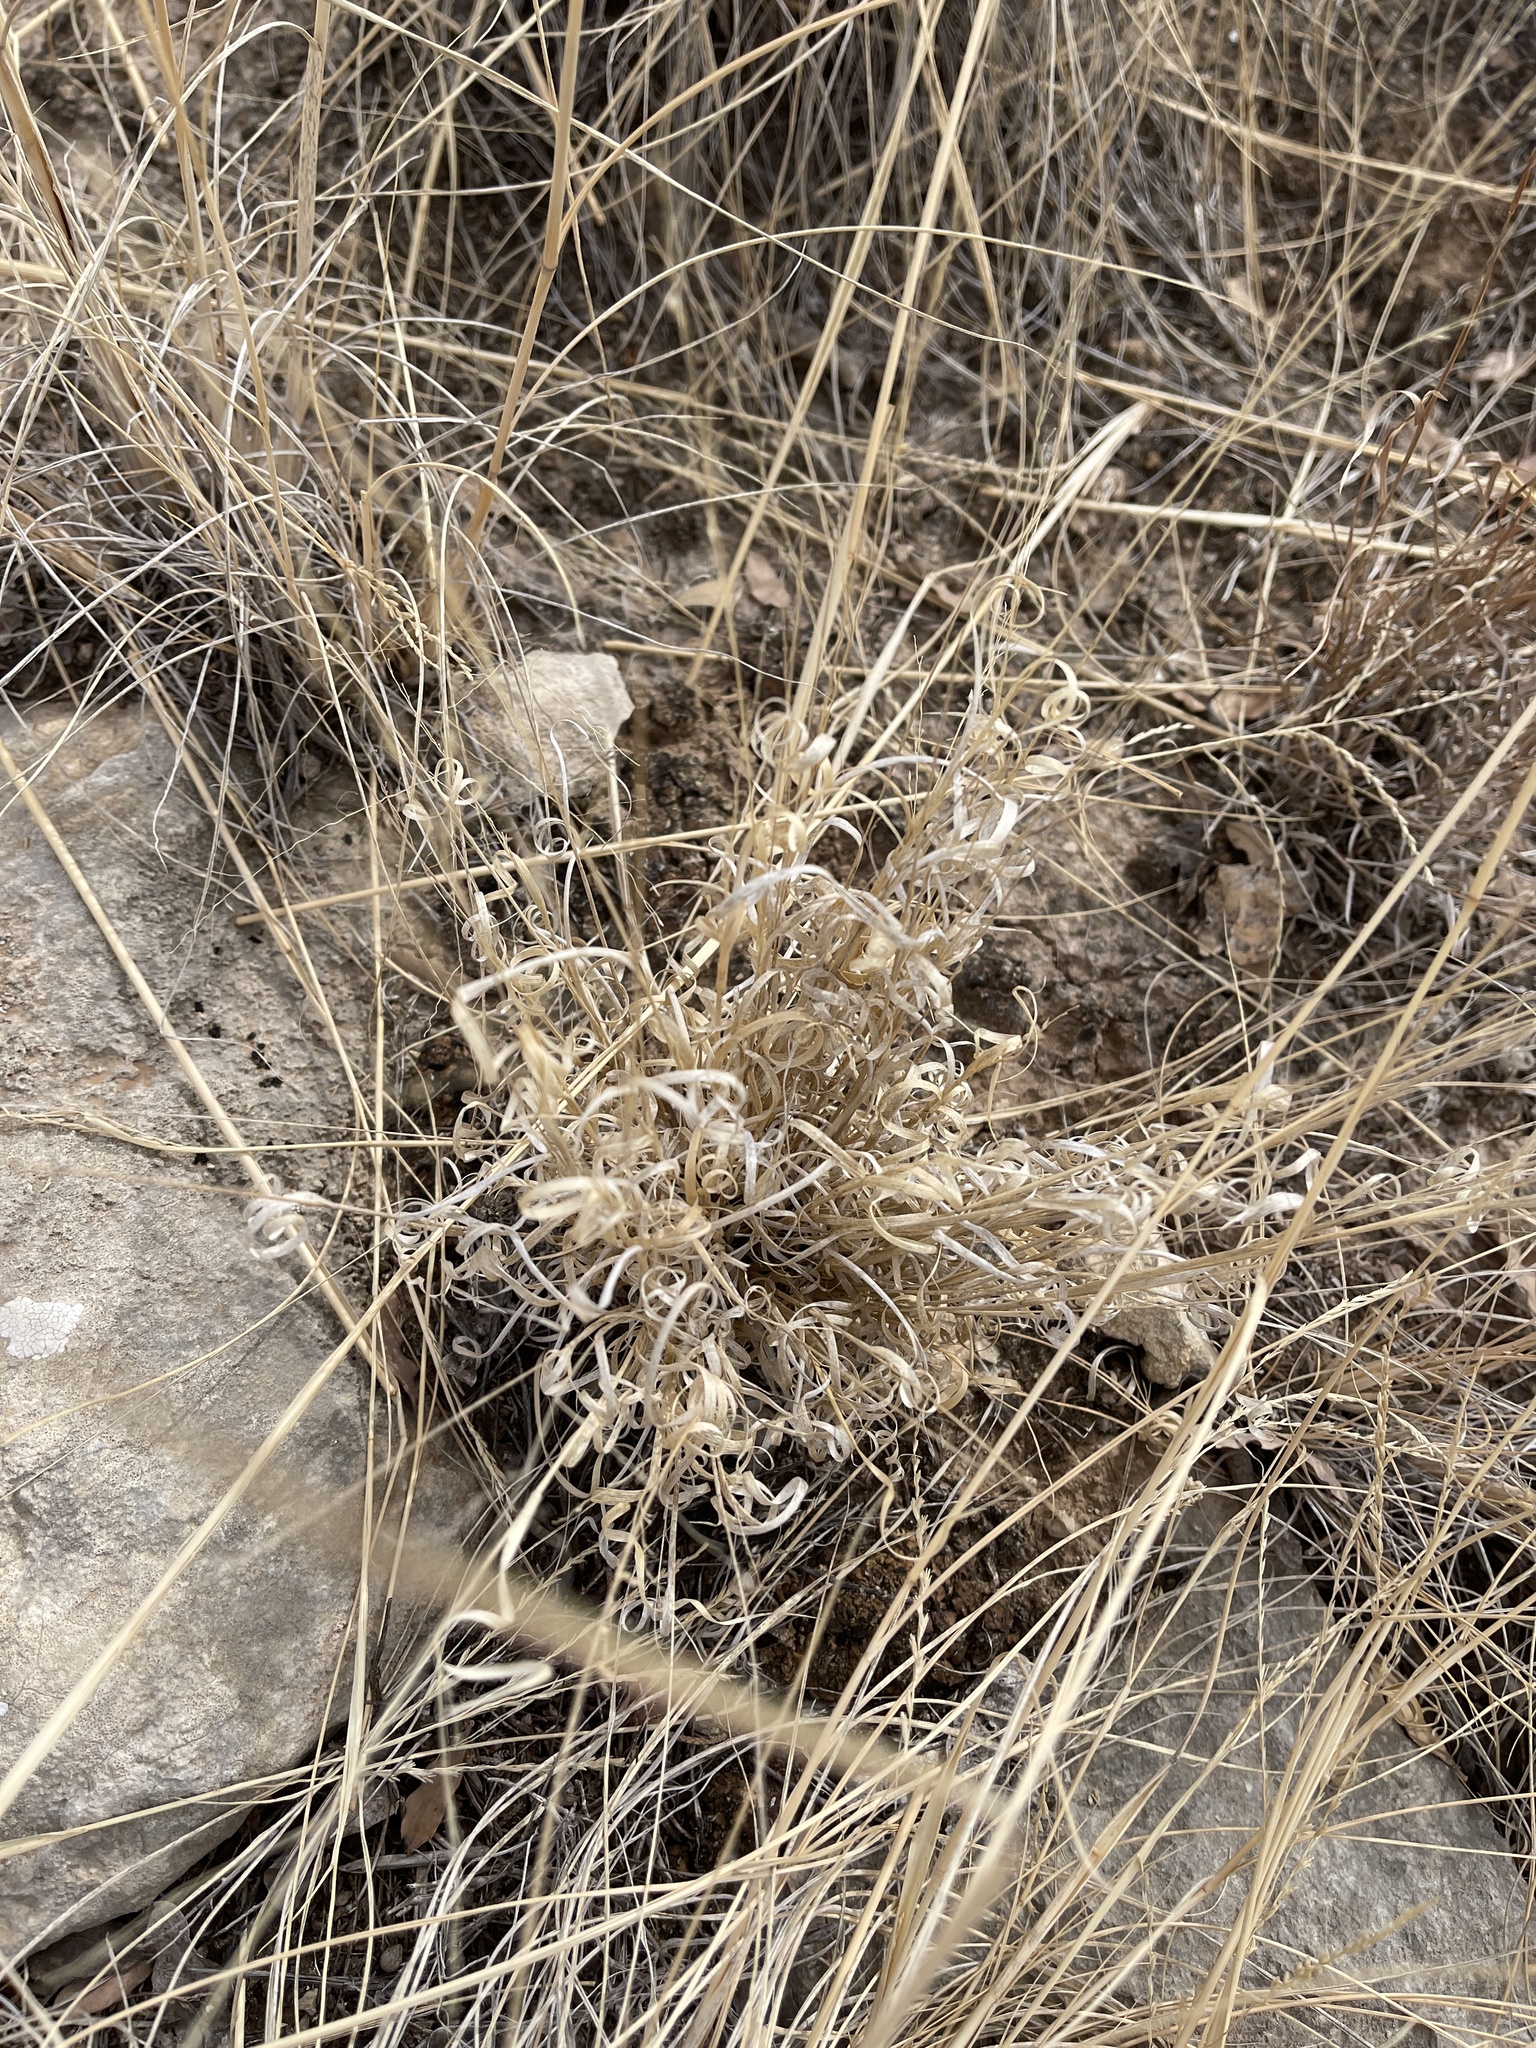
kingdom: Plantae
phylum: Tracheophyta
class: Liliopsida
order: Poales
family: Poaceae
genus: Panicum
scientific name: Panicum hallii
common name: Hall's witchgrass
